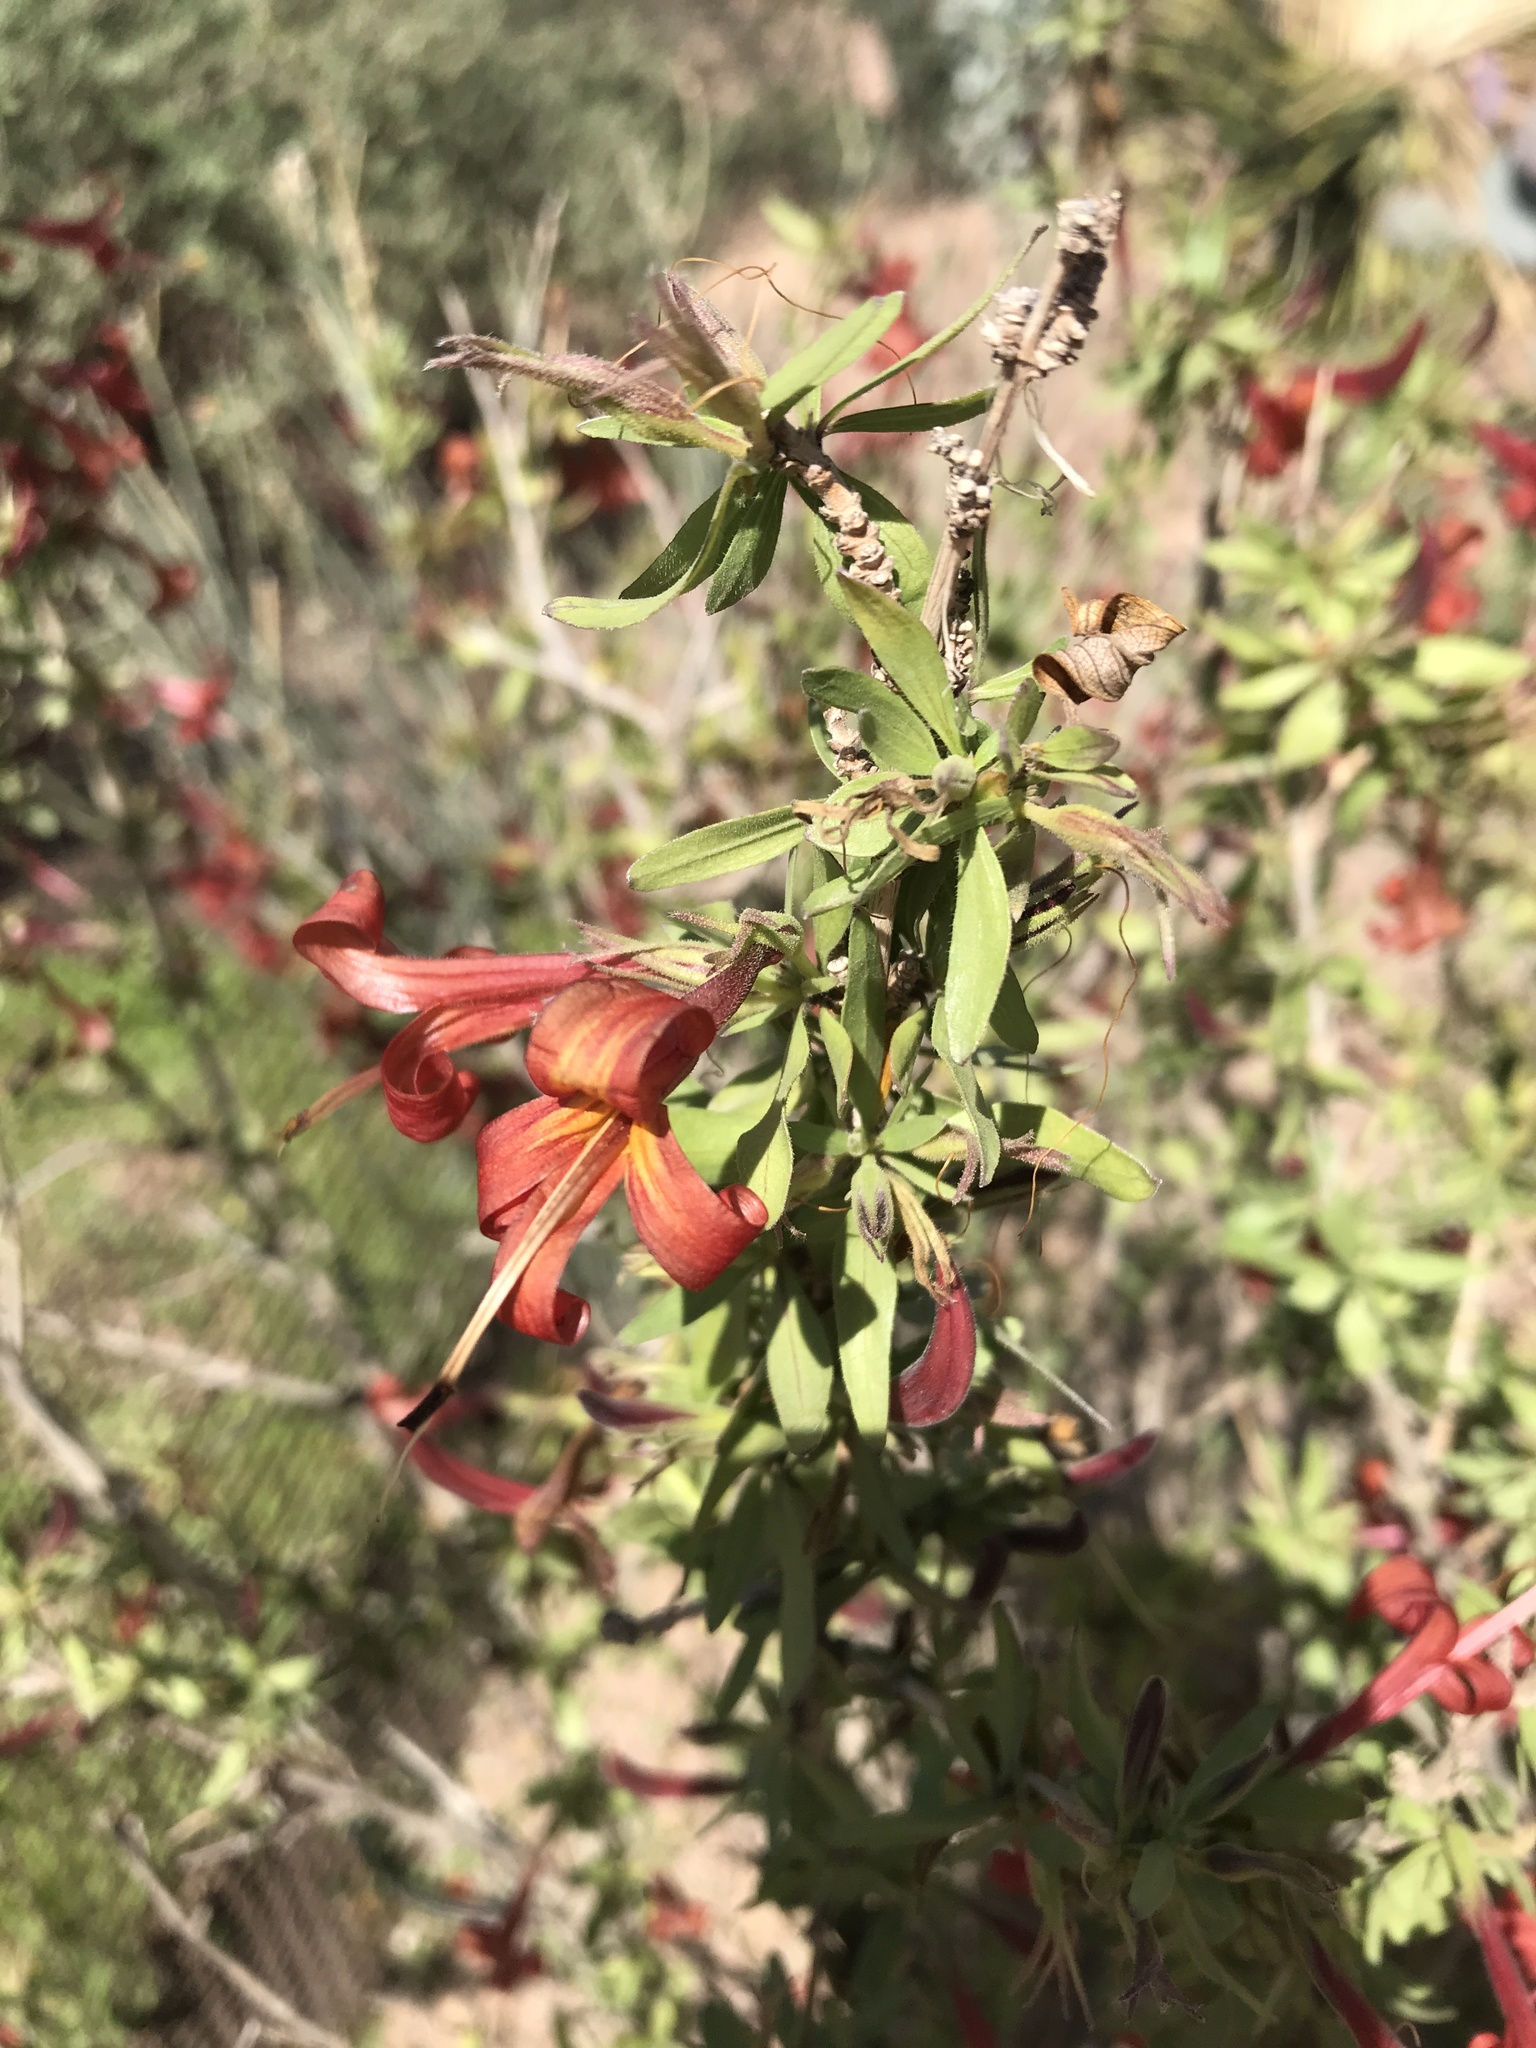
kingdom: Plantae
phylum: Tracheophyta
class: Magnoliopsida
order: Lamiales
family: Acanthaceae
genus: Anisacanthus
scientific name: Anisacanthus thurberi
